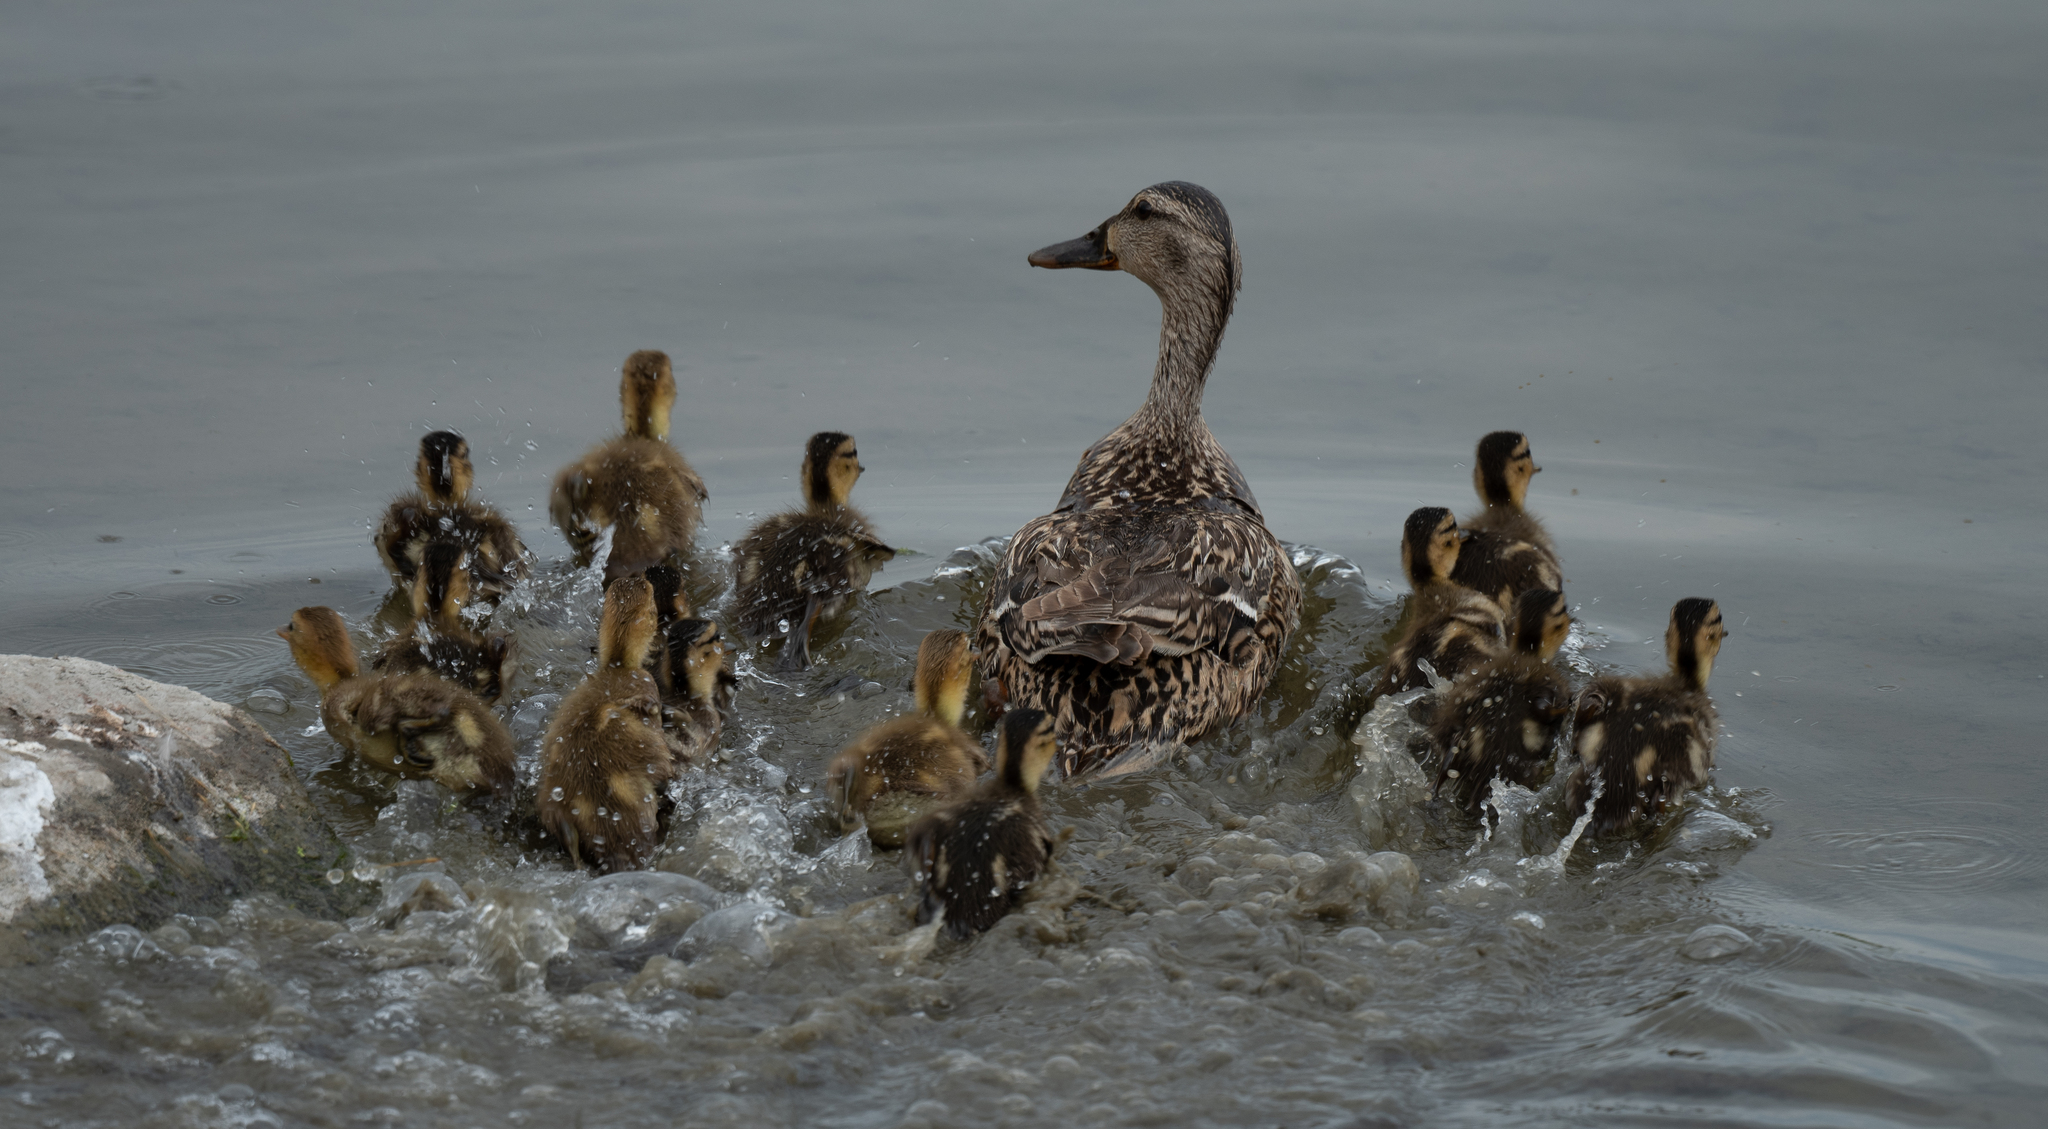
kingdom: Animalia
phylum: Chordata
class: Aves
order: Anseriformes
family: Anatidae
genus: Anas
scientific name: Anas platyrhynchos
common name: Mallard
